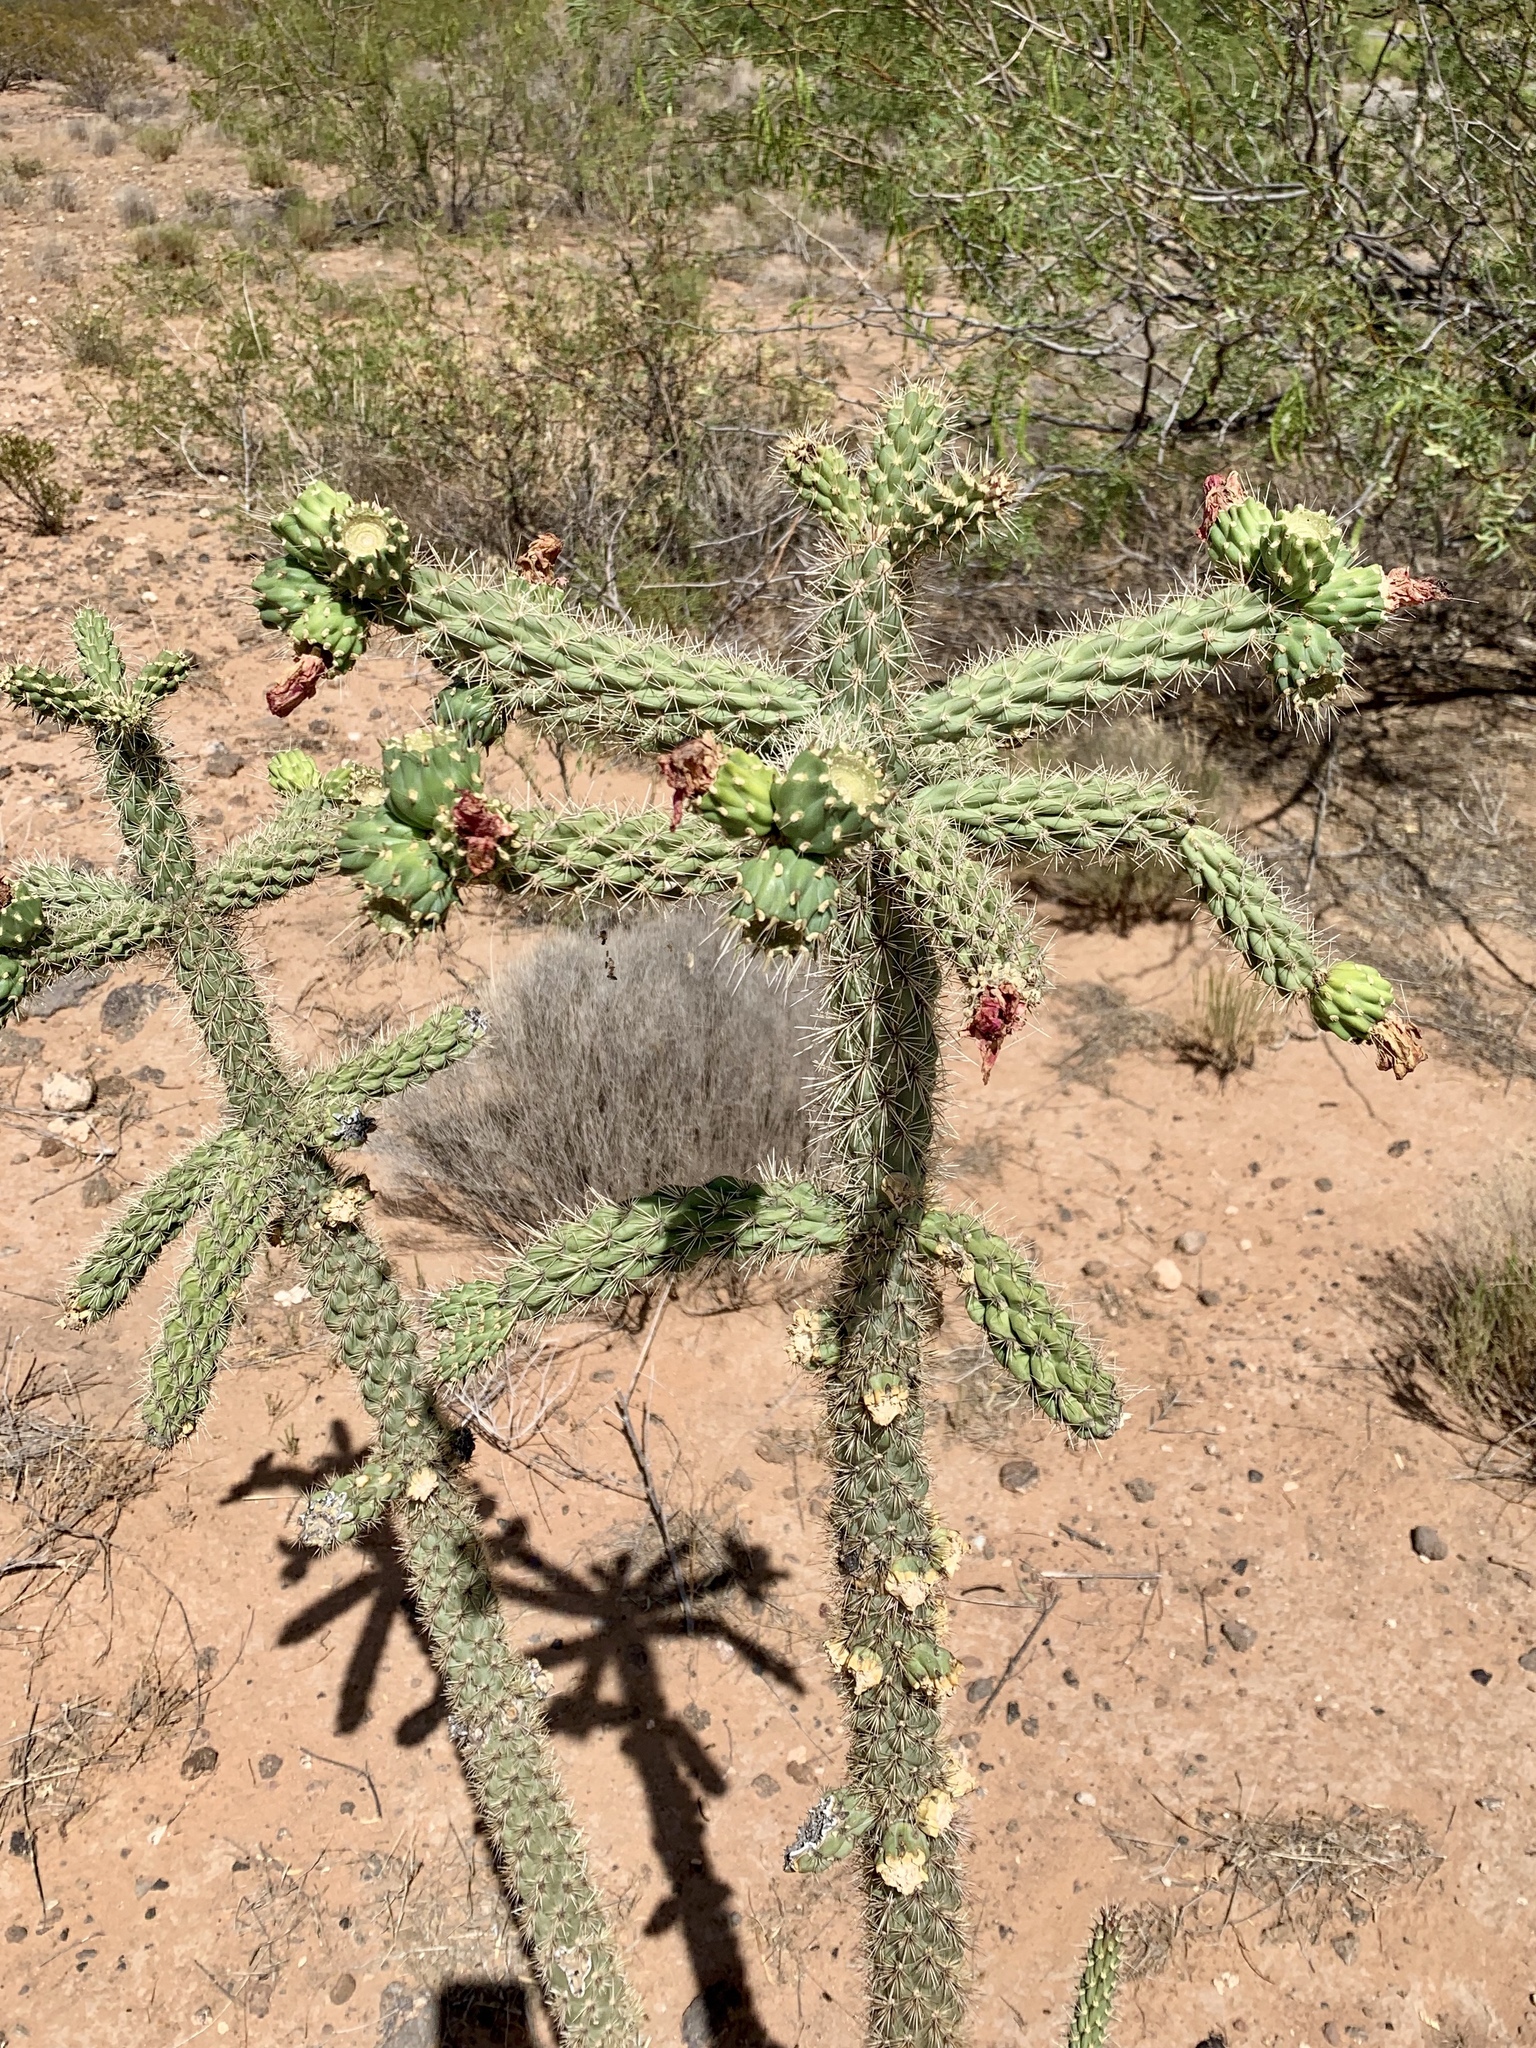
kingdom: Plantae
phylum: Tracheophyta
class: Magnoliopsida
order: Caryophyllales
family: Cactaceae
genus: Cylindropuntia
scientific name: Cylindropuntia imbricata
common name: Candelabrum cactus
